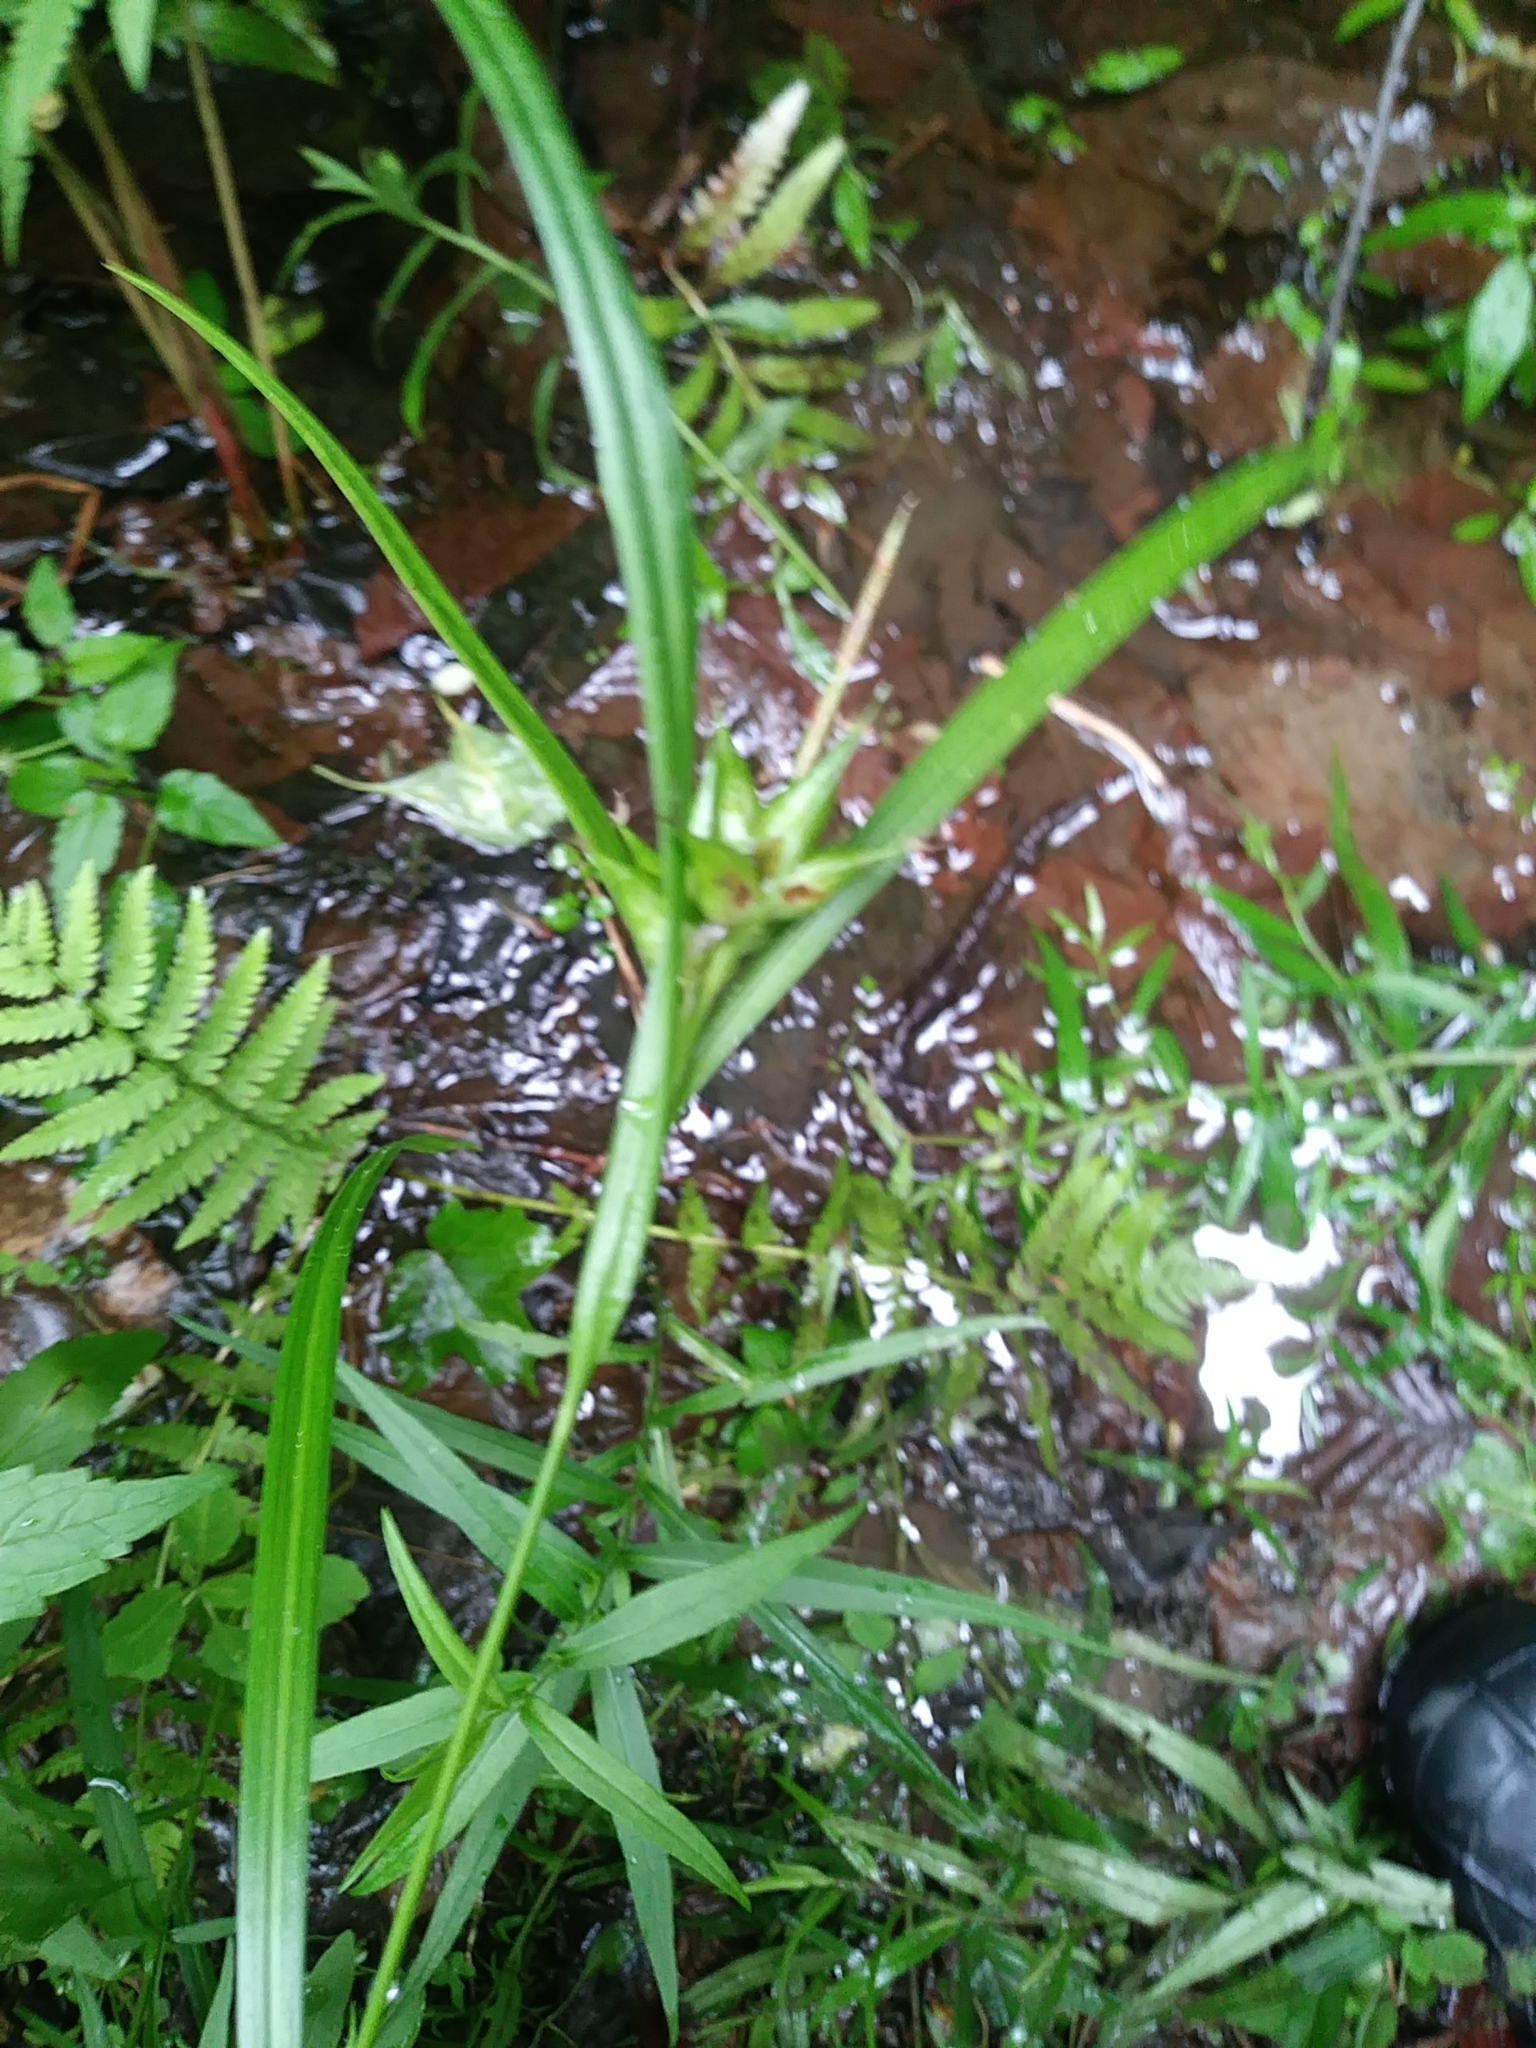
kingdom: Plantae
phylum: Tracheophyta
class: Liliopsida
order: Poales
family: Cyperaceae
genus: Carex
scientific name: Carex intumescens
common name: Greater bladder sedge
